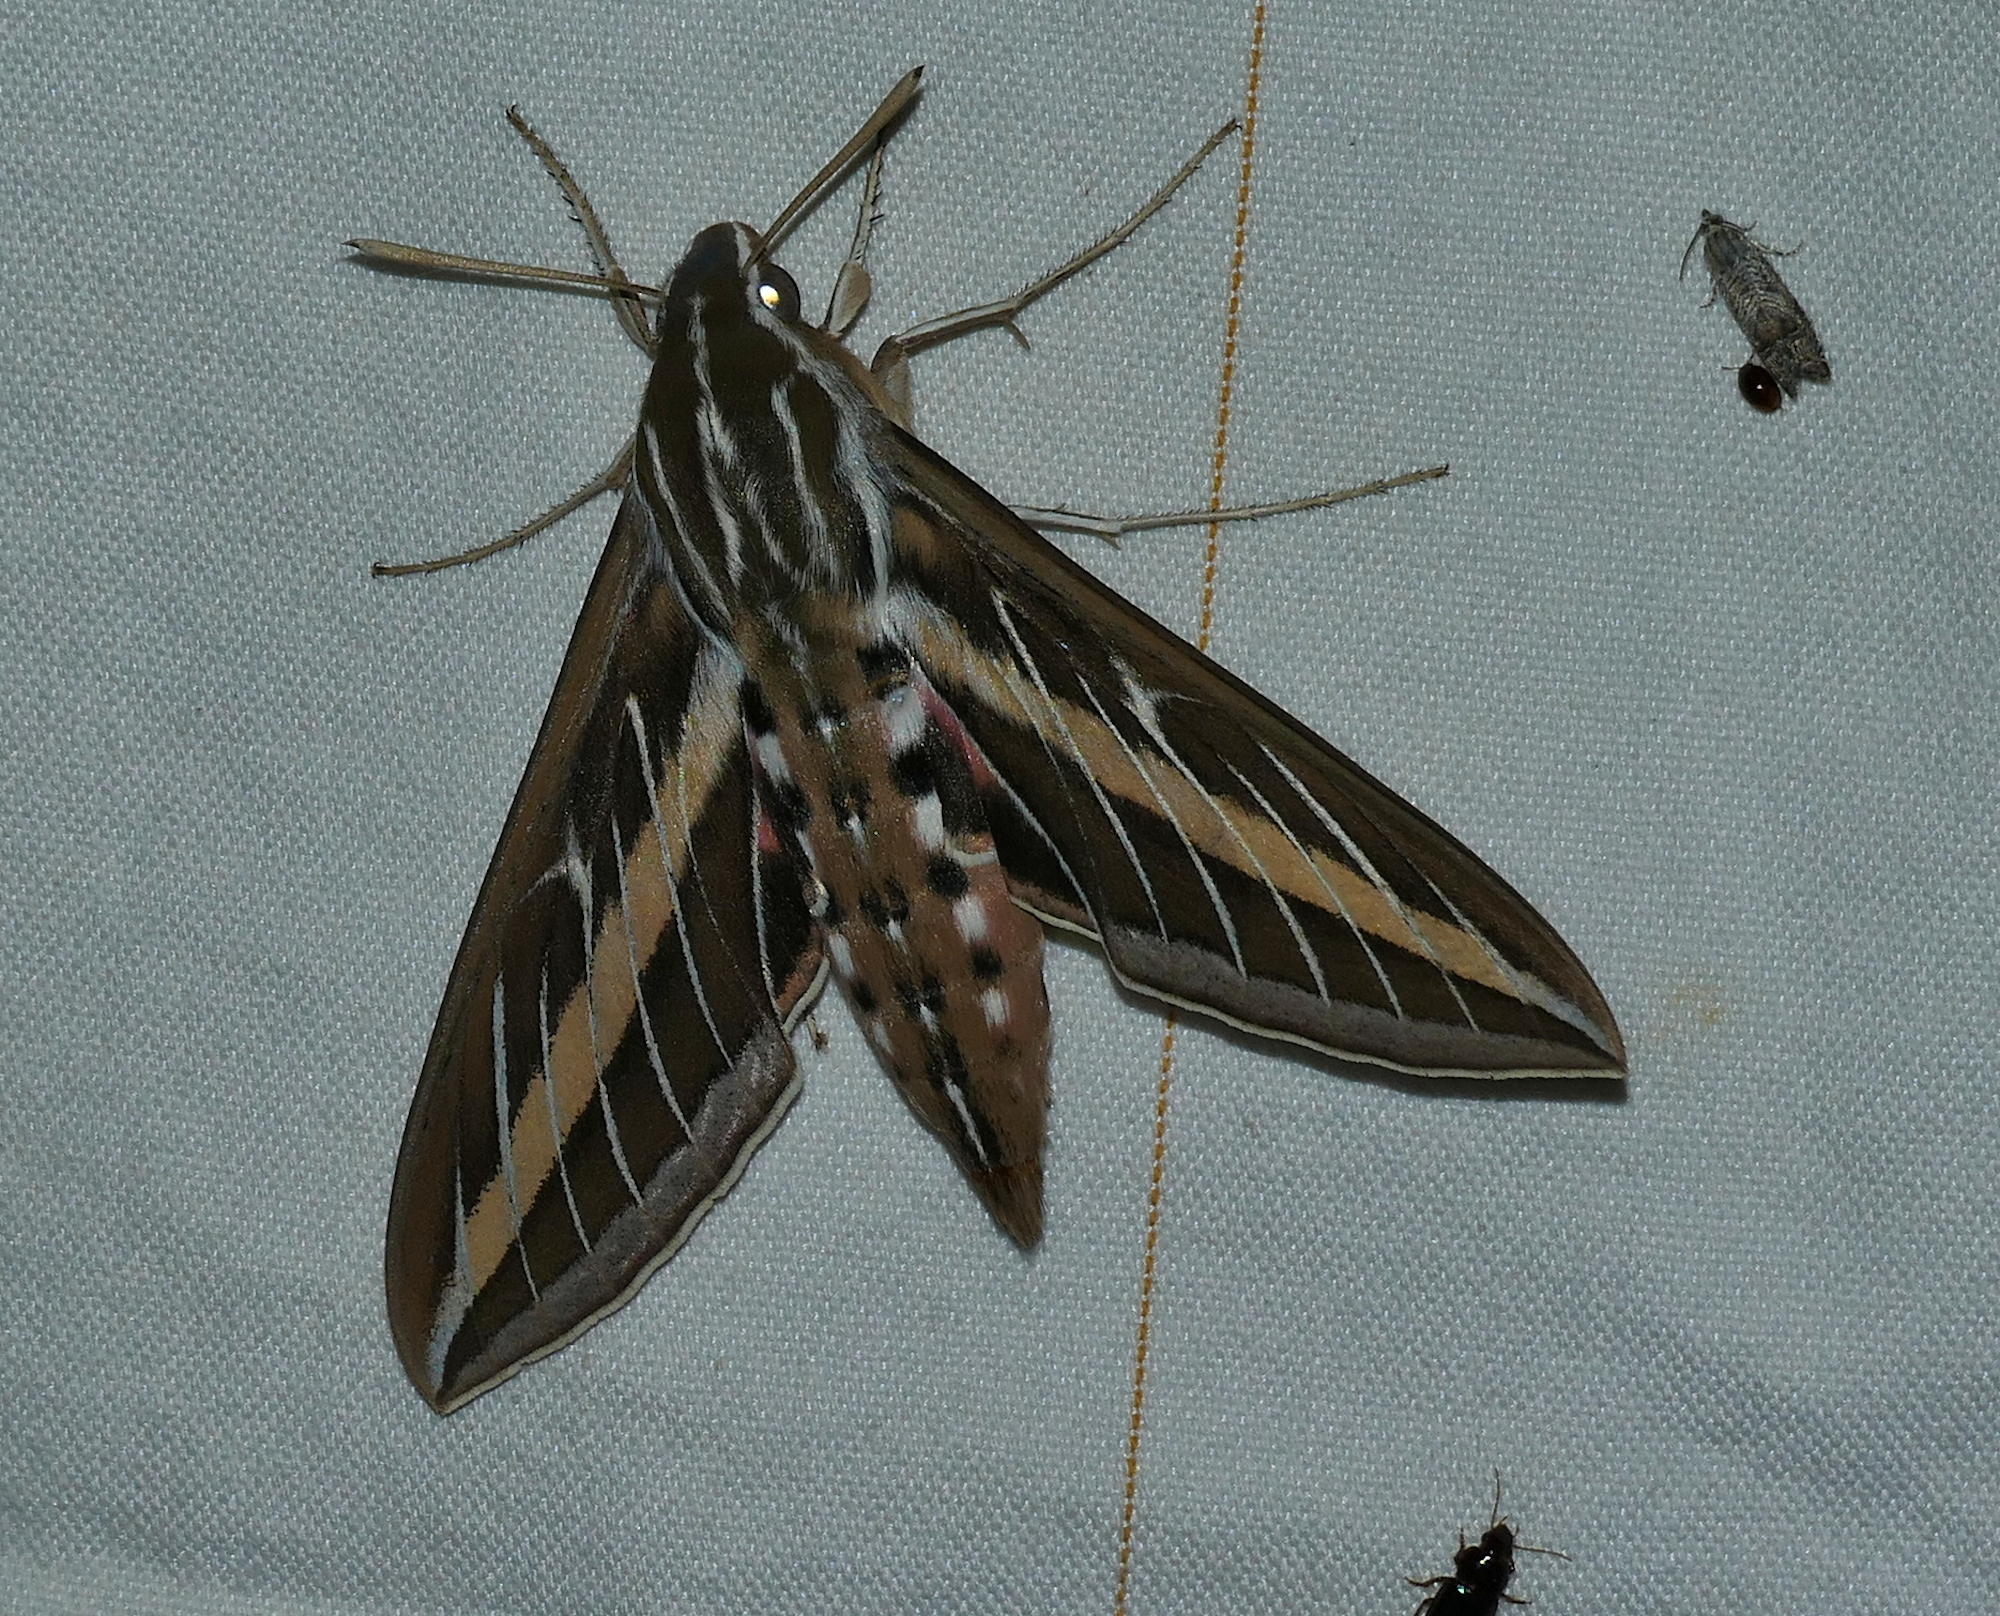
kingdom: Animalia
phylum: Arthropoda
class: Insecta
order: Lepidoptera
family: Sphingidae
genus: Hyles
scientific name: Hyles lineata
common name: White-lined sphinx
